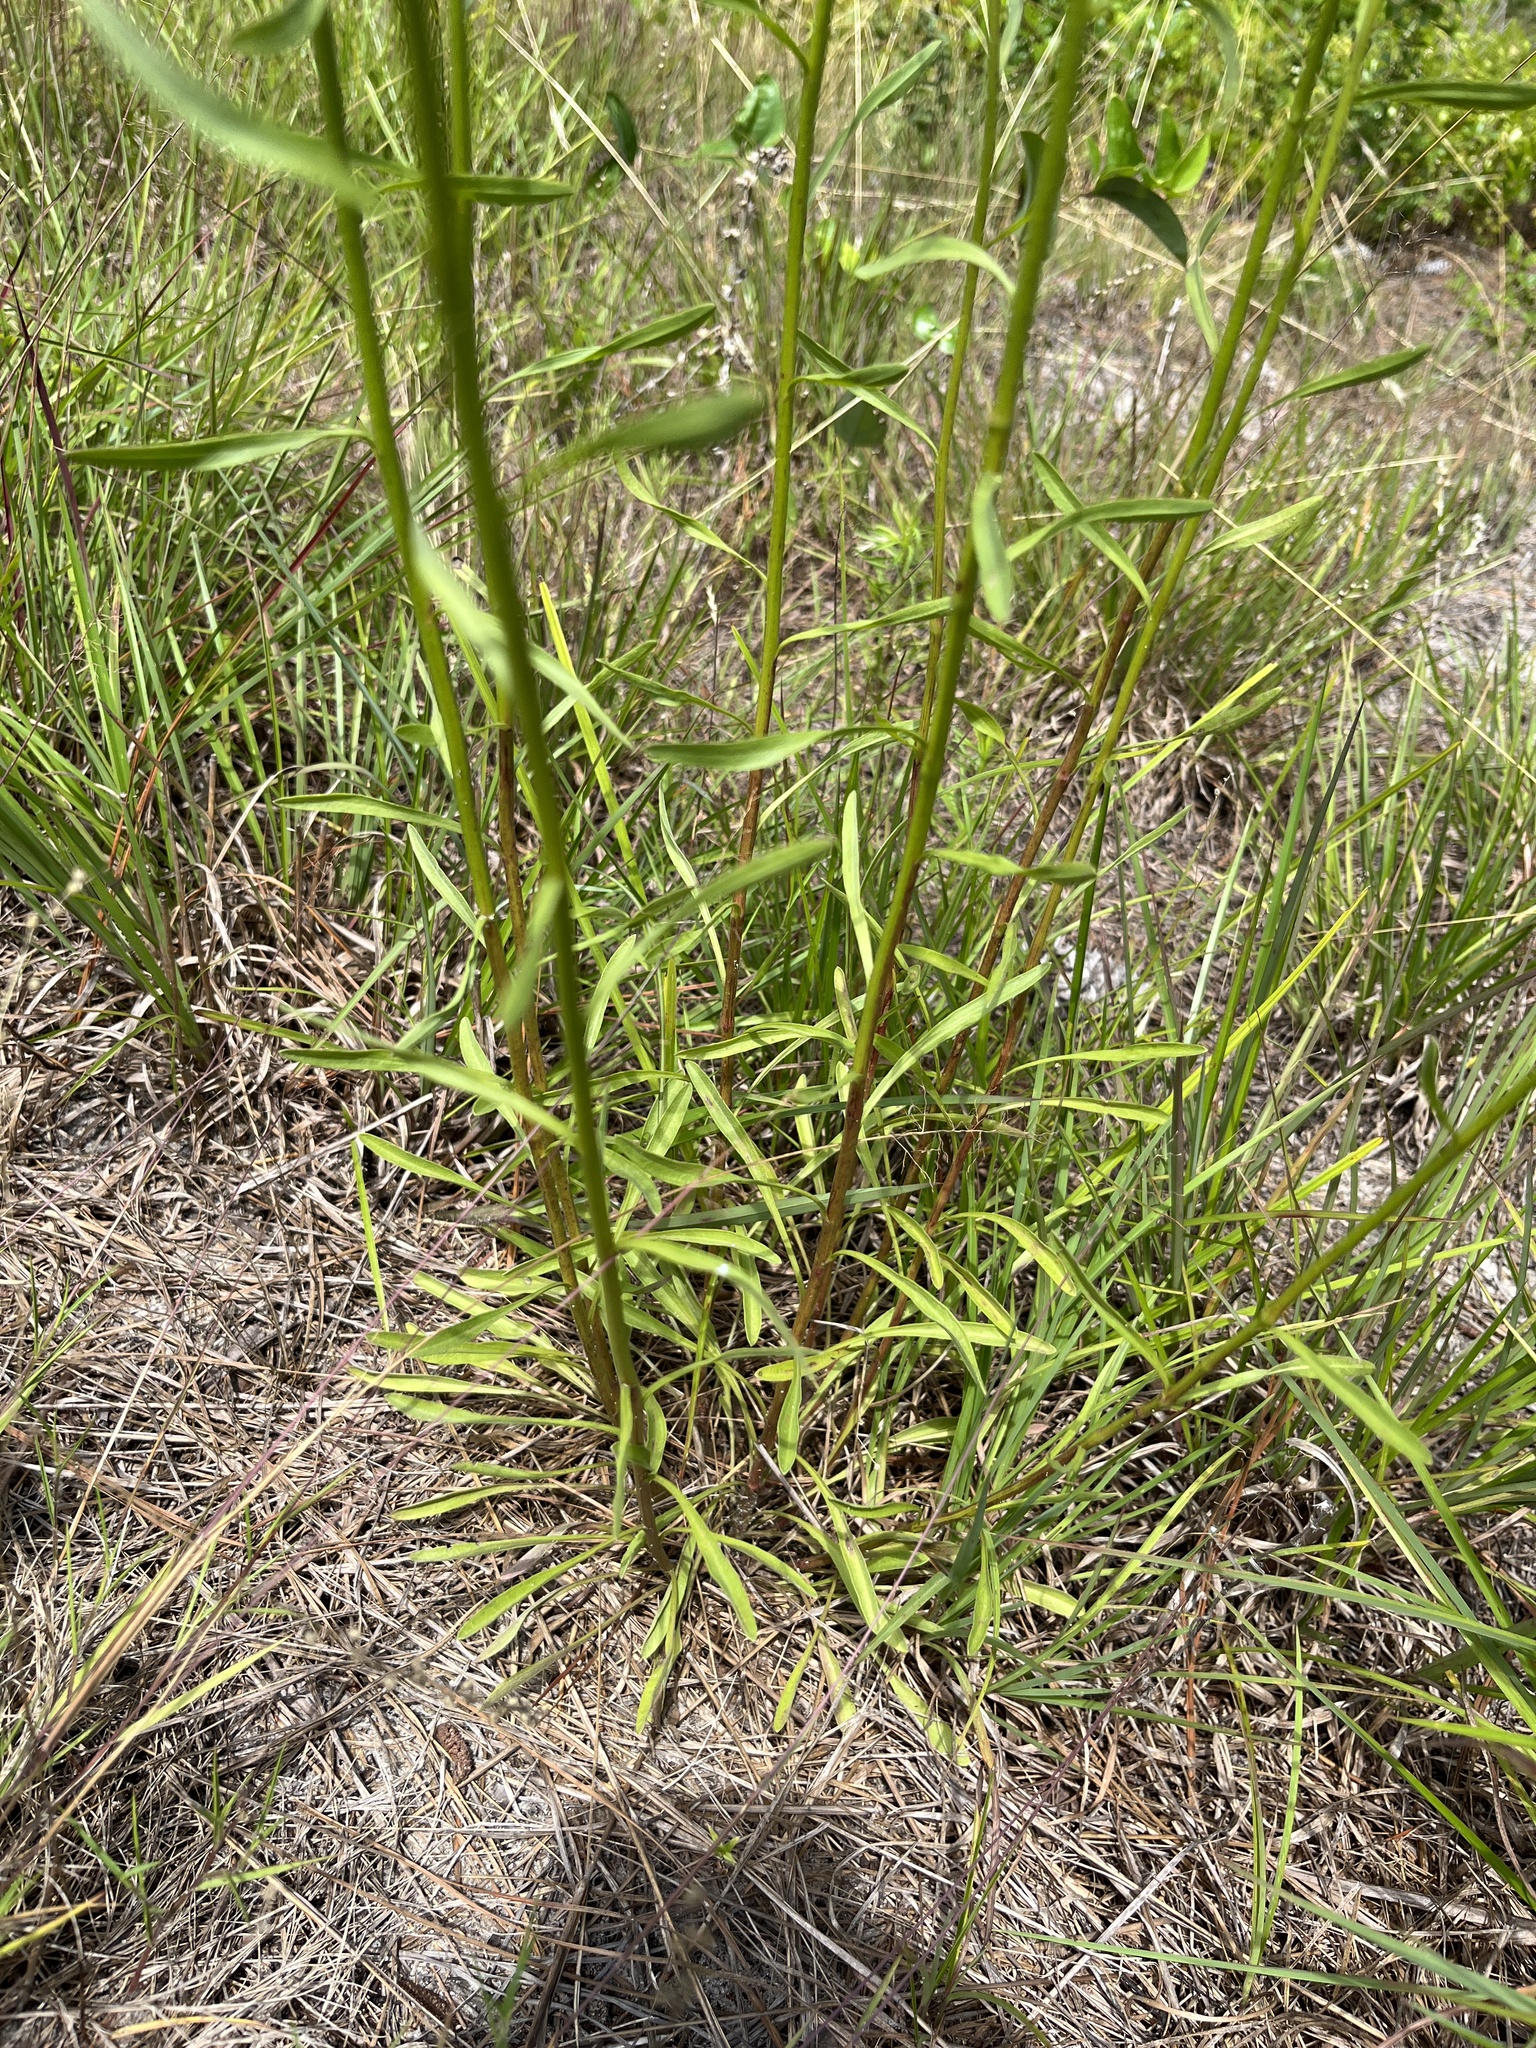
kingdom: Plantae
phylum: Tracheophyta
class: Magnoliopsida
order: Asterales
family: Asteraceae
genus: Erigeron
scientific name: Erigeron strigosus
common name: Common eastern fleabane
